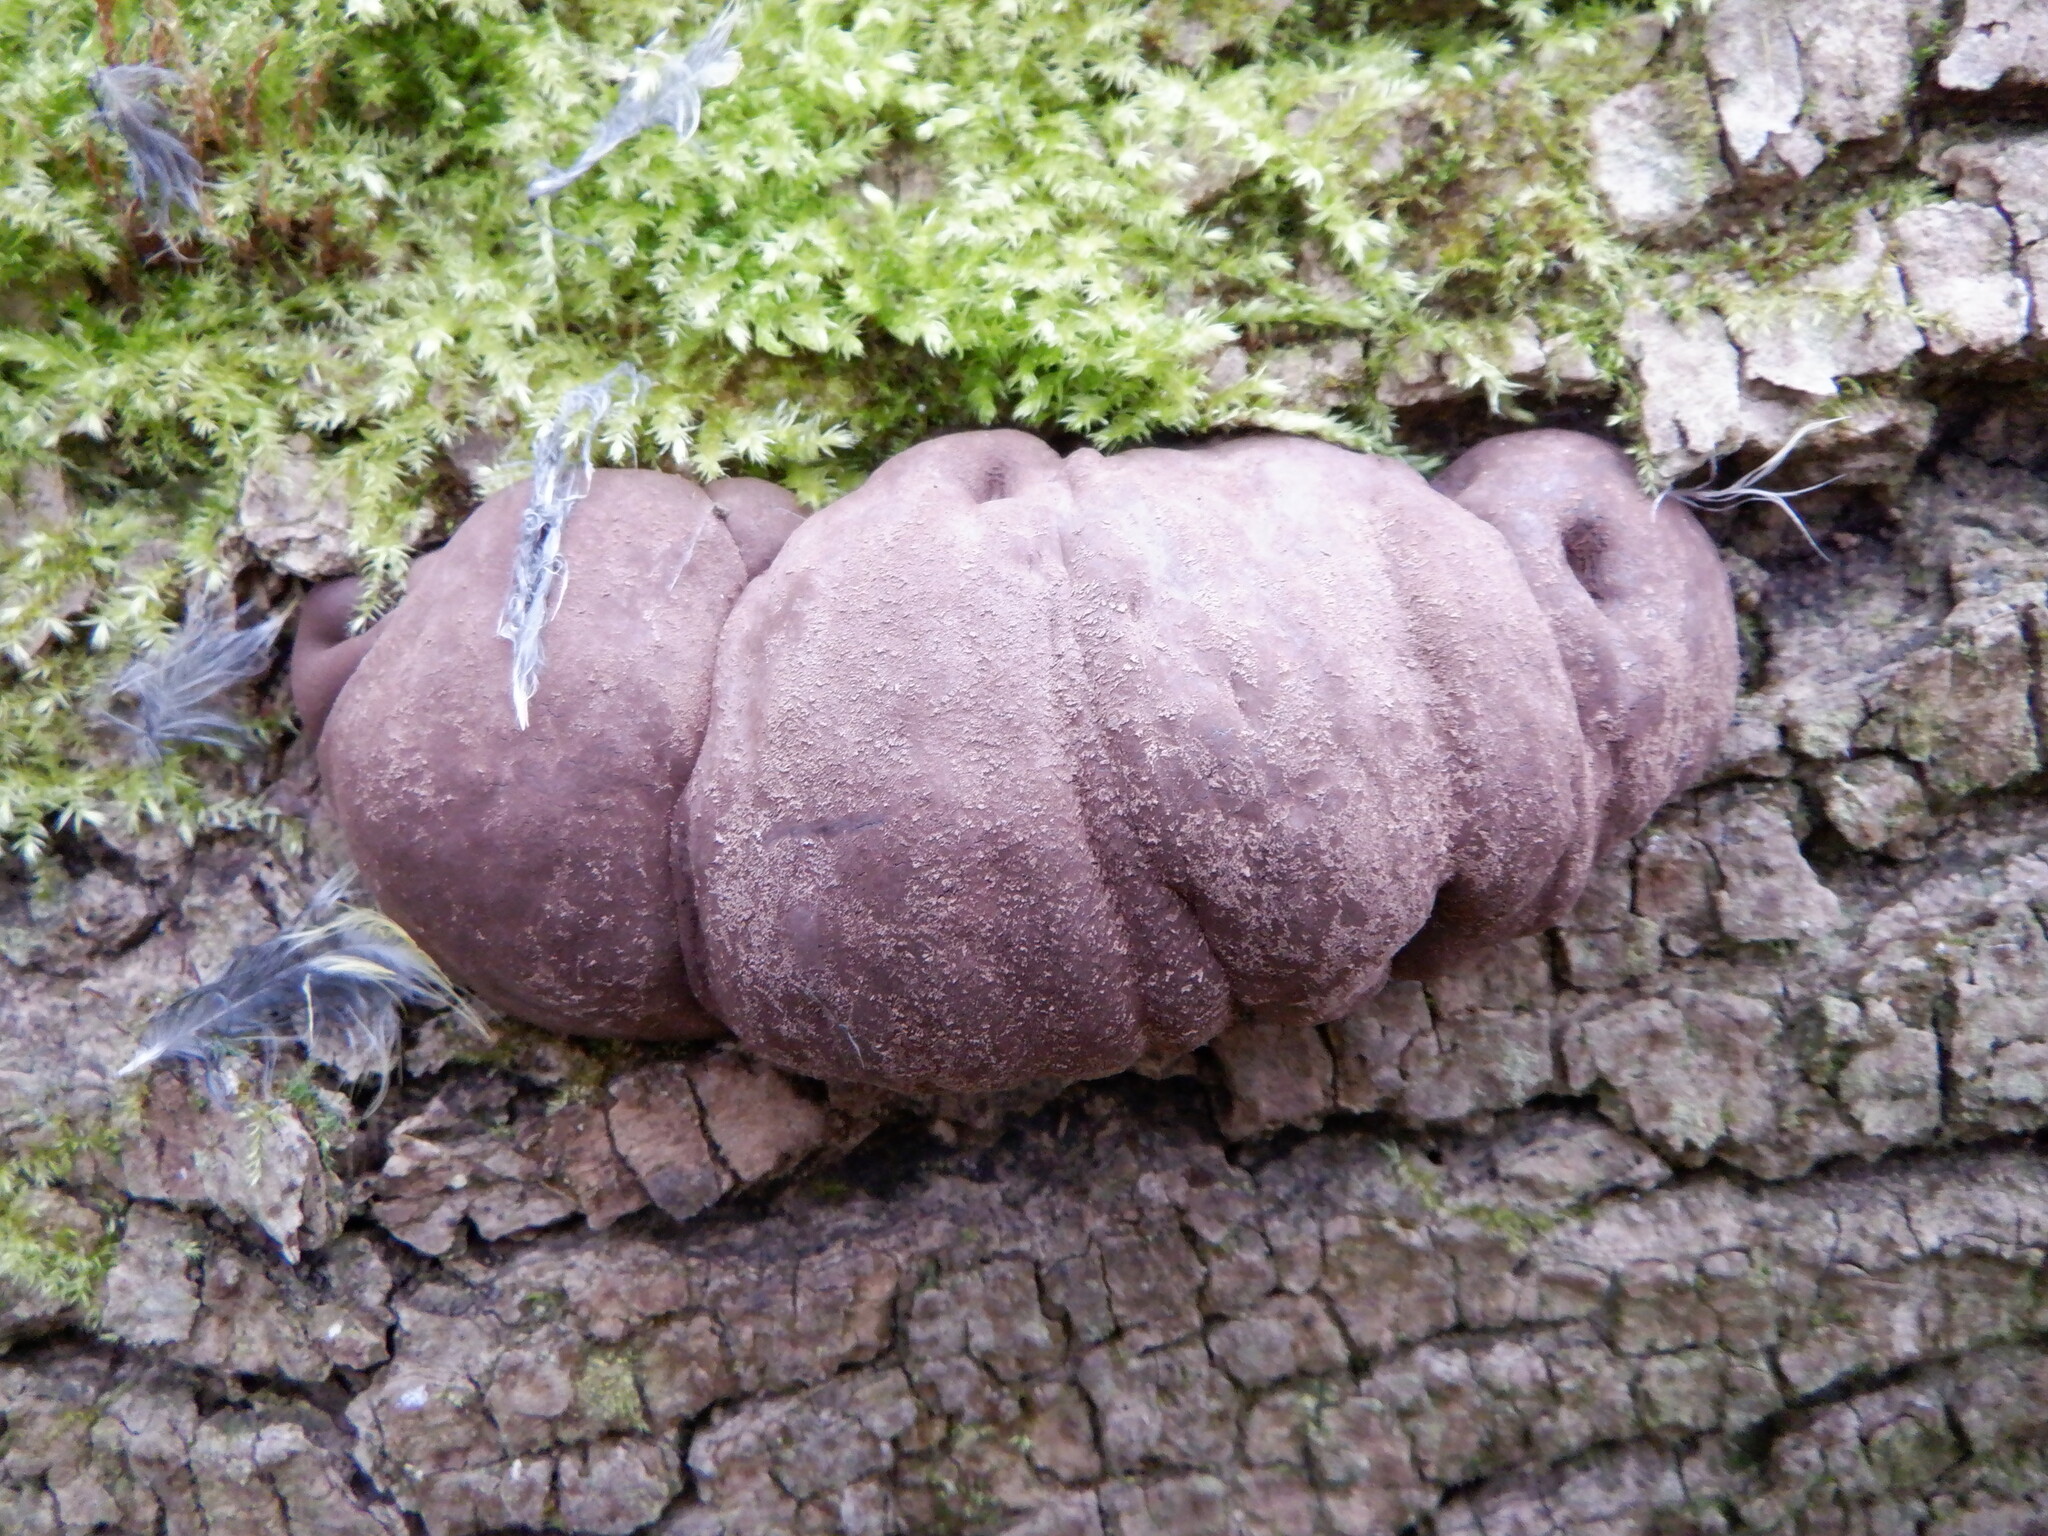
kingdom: Fungi
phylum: Ascomycota
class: Sordariomycetes
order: Xylariales
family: Hypoxylaceae
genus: Daldinia
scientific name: Daldinia concentrica
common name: Cramp balls
